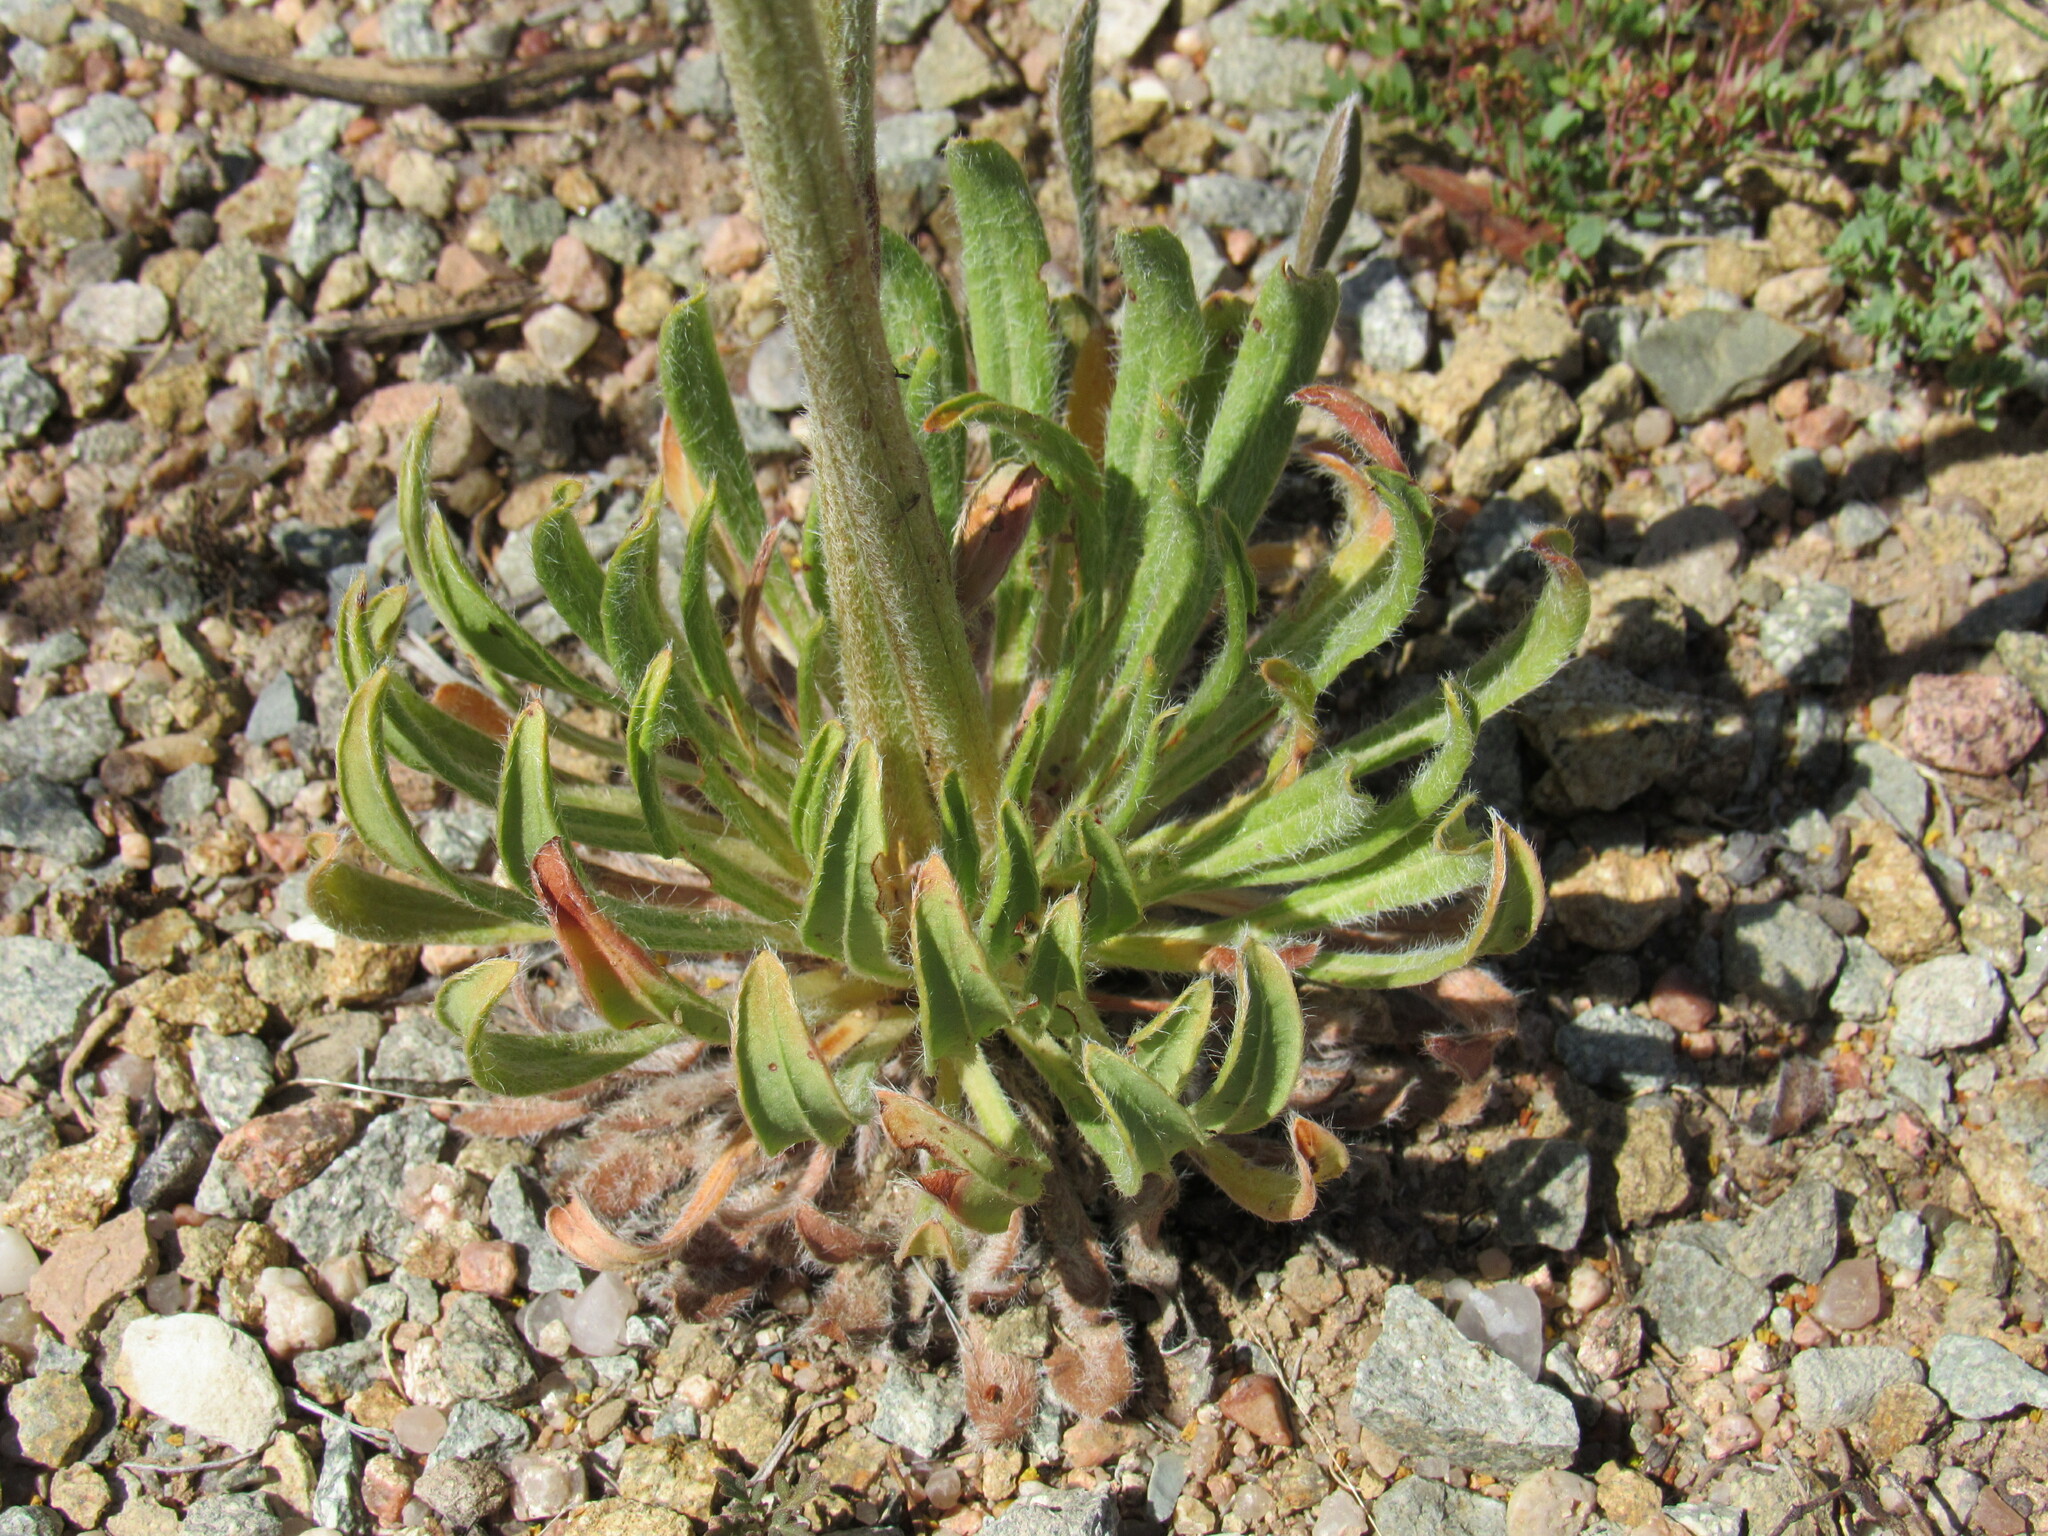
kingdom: Plantae
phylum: Tracheophyta
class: Magnoliopsida
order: Caryophyllales
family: Polygonaceae
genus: Eriogonum
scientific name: Eriogonum alatum
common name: Winged eriogonum
